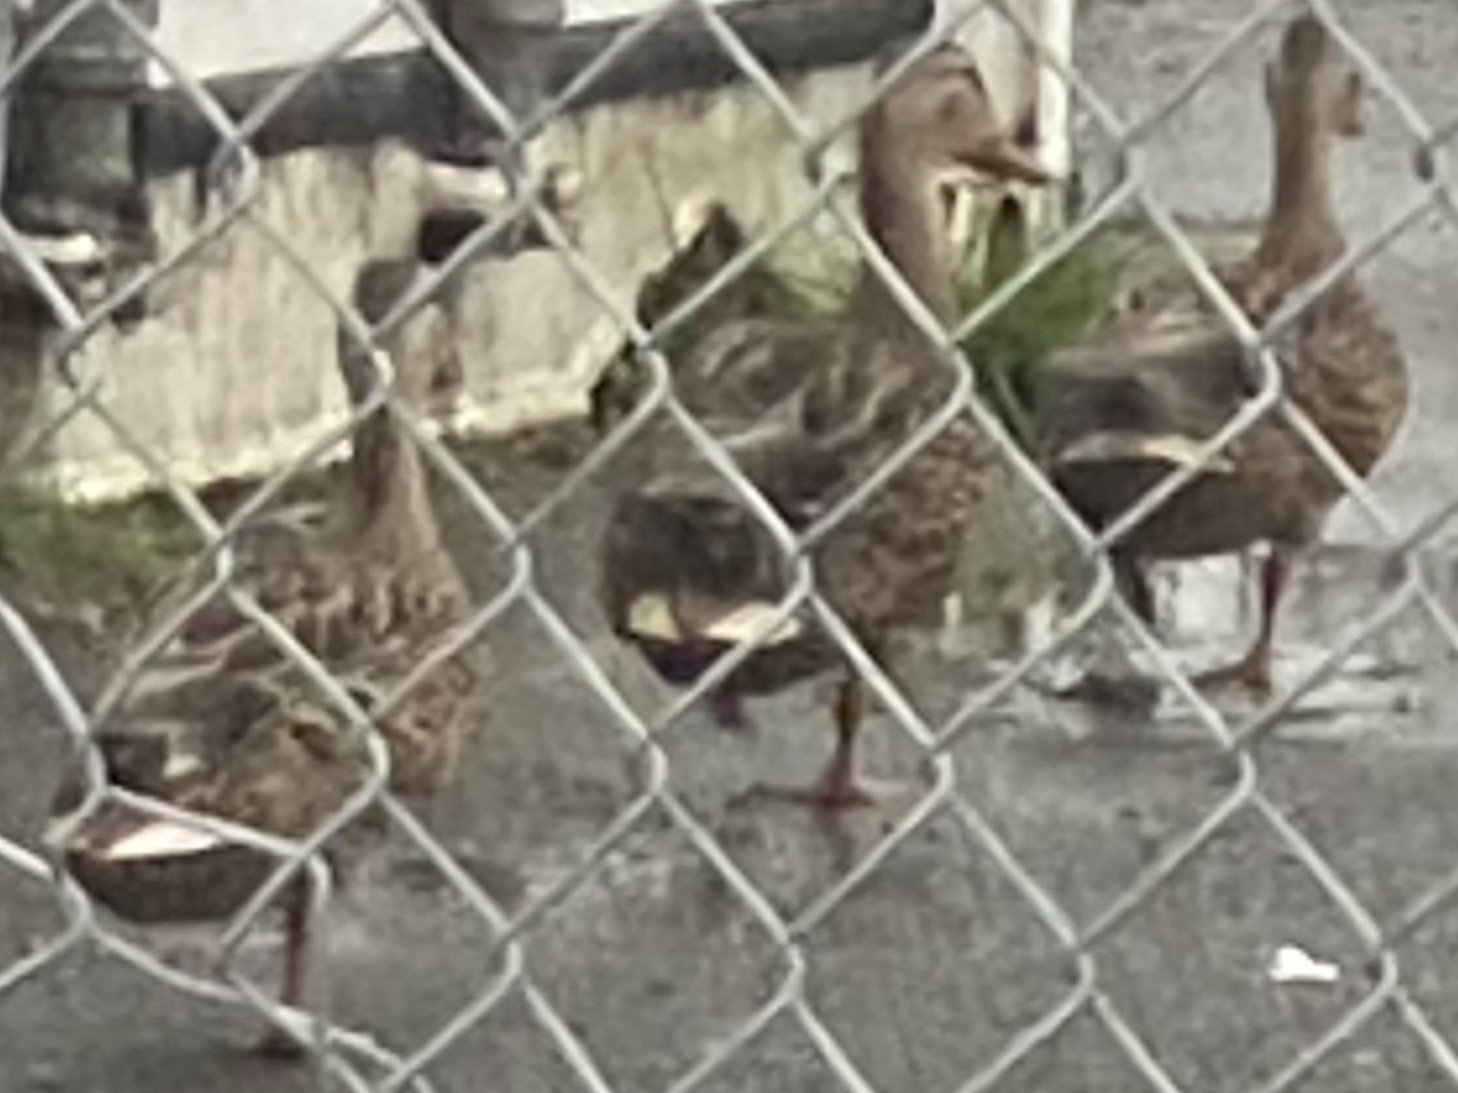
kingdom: Animalia
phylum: Chordata
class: Aves
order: Anseriformes
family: Anatidae
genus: Anas
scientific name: Anas platyrhynchos
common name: Mallard
